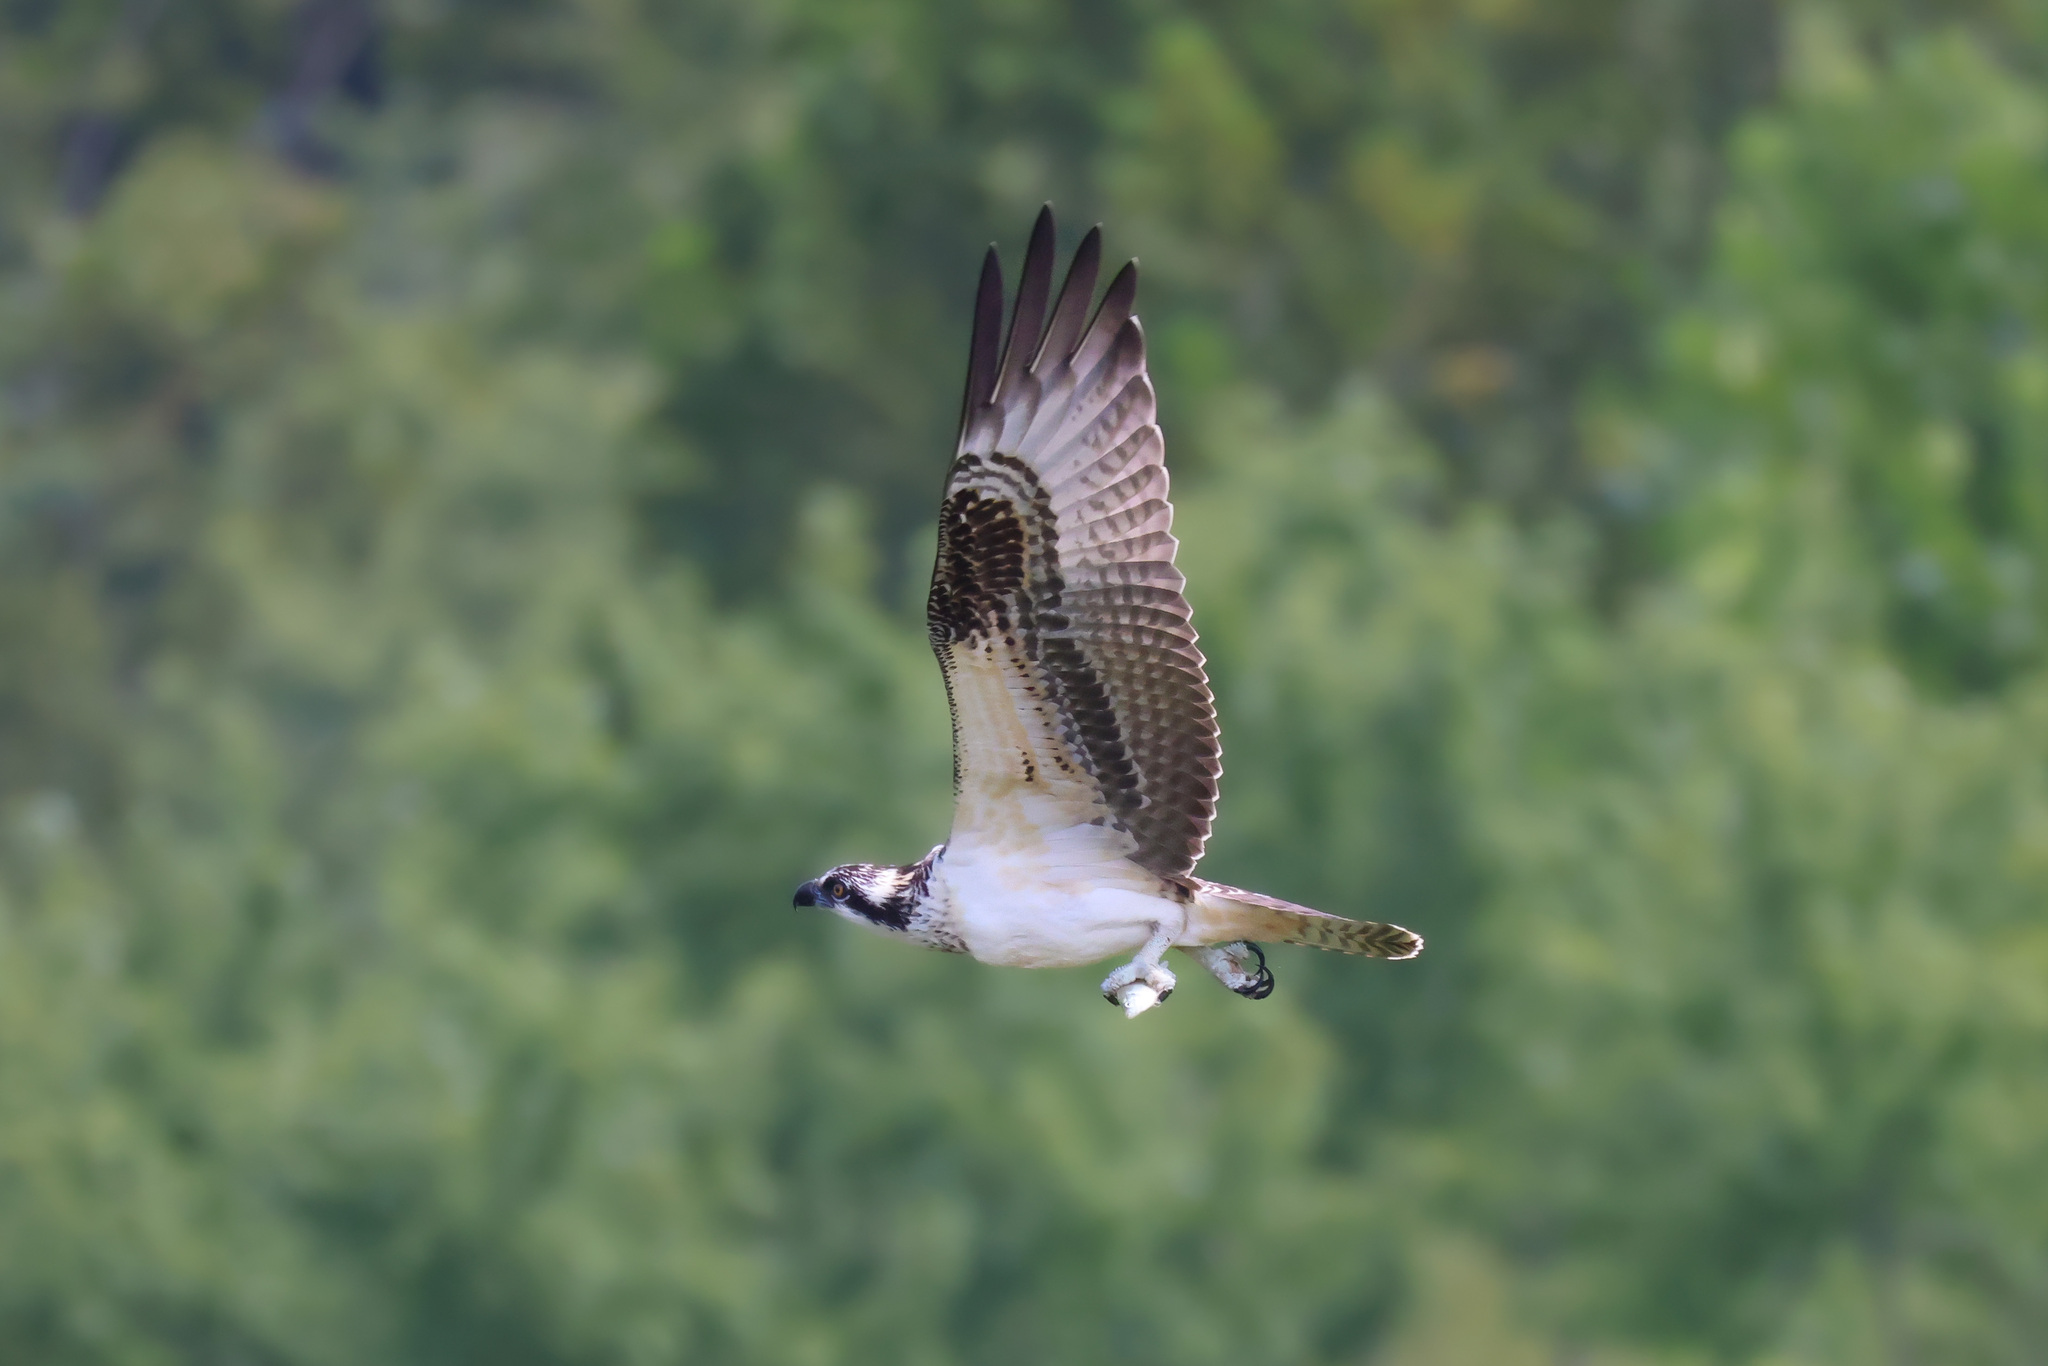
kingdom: Animalia
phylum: Chordata
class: Aves
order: Accipitriformes
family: Pandionidae
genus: Pandion
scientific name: Pandion haliaetus
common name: Osprey
